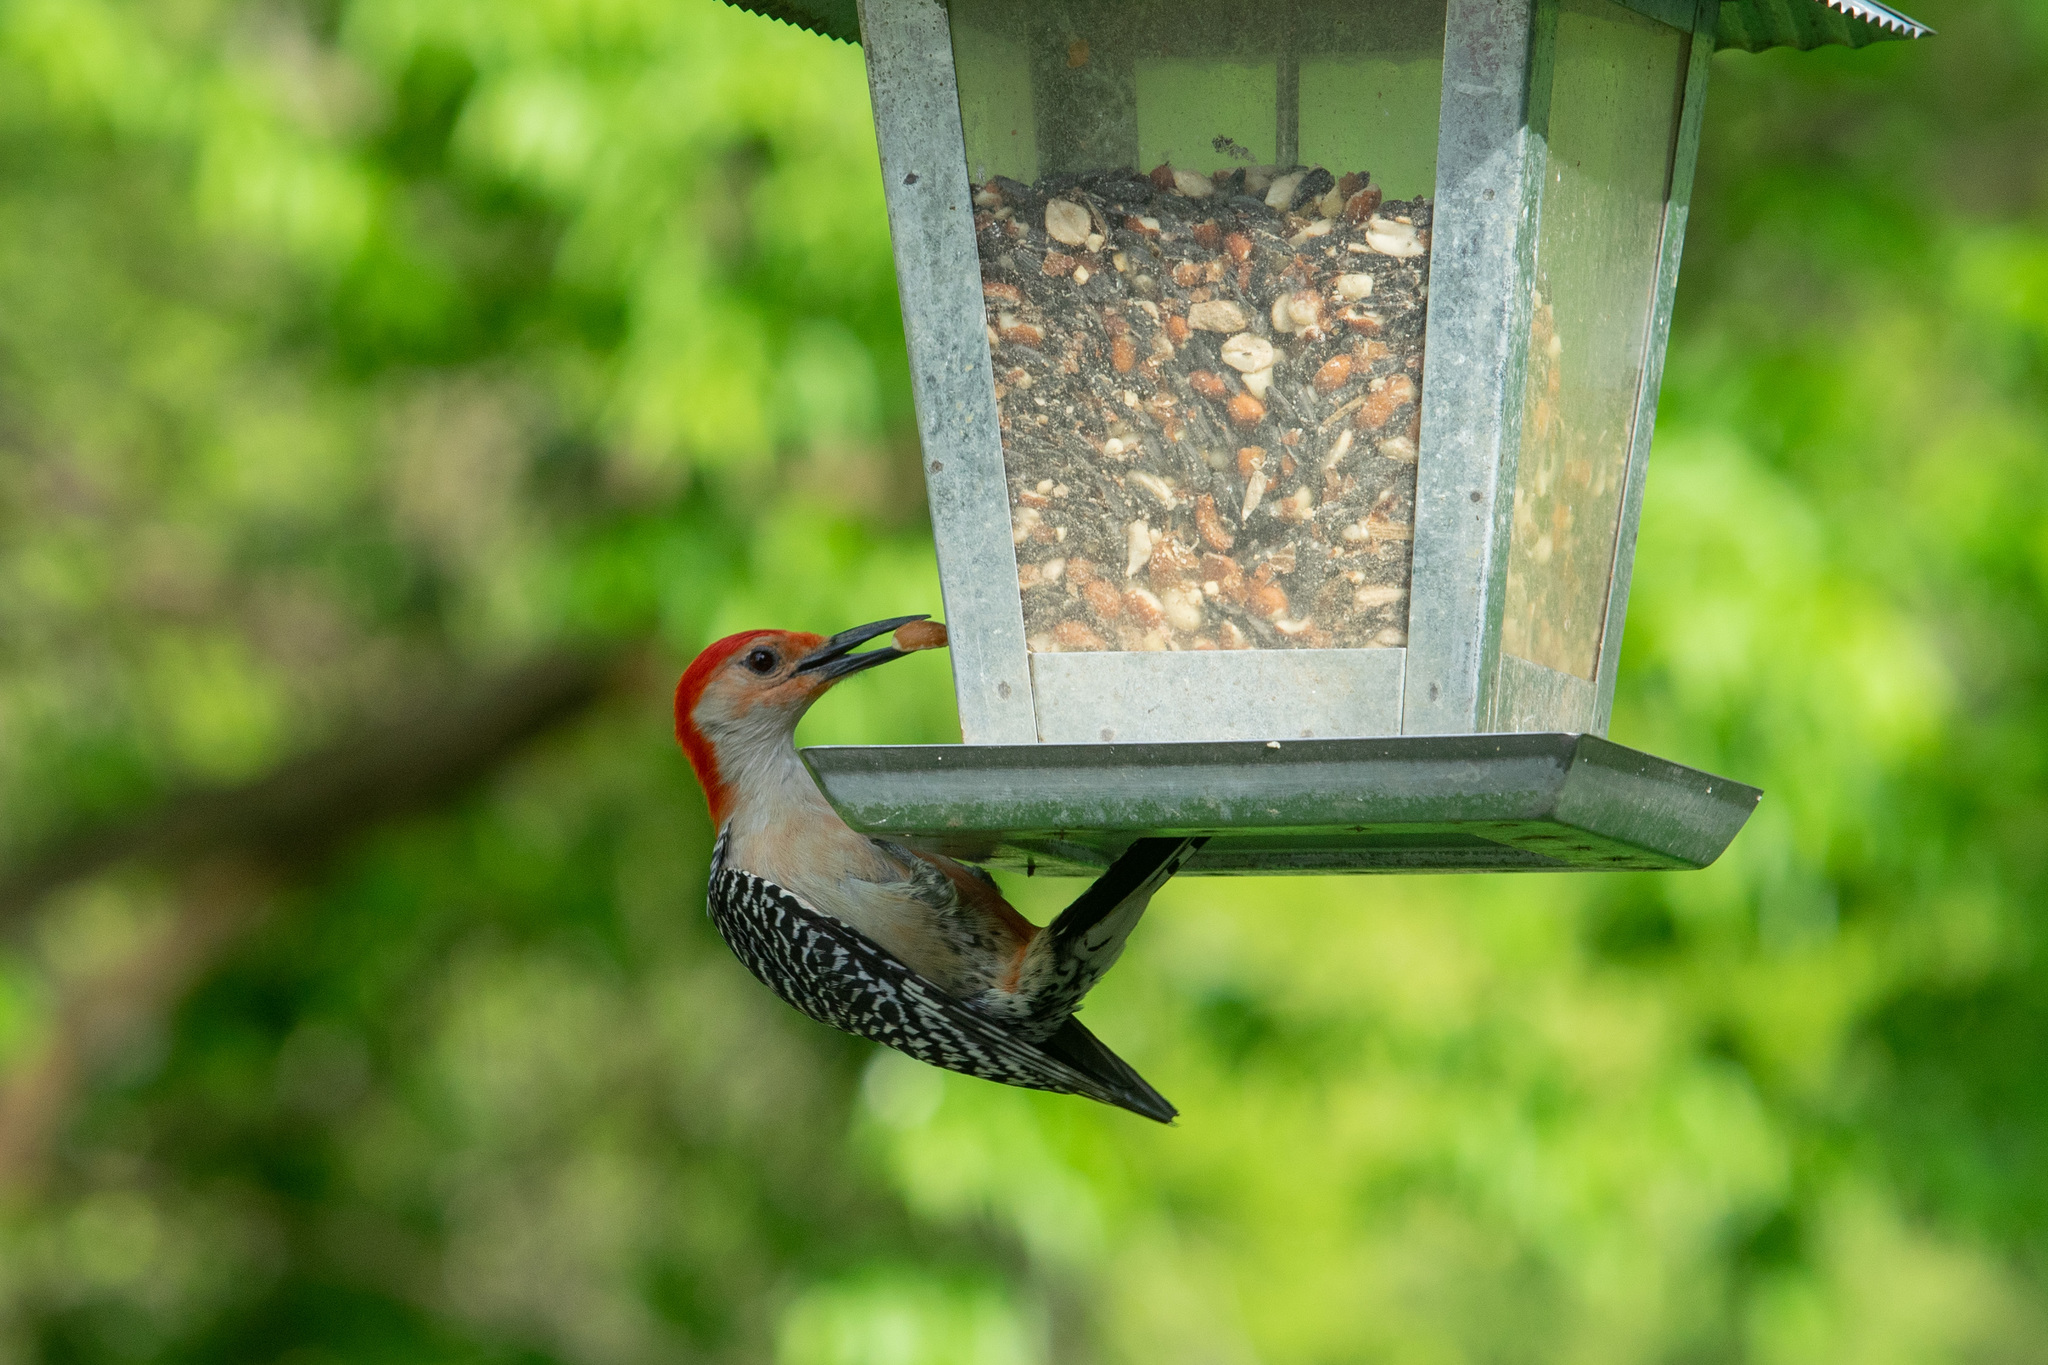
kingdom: Animalia
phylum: Chordata
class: Aves
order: Piciformes
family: Picidae
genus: Melanerpes
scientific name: Melanerpes carolinus
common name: Red-bellied woodpecker
